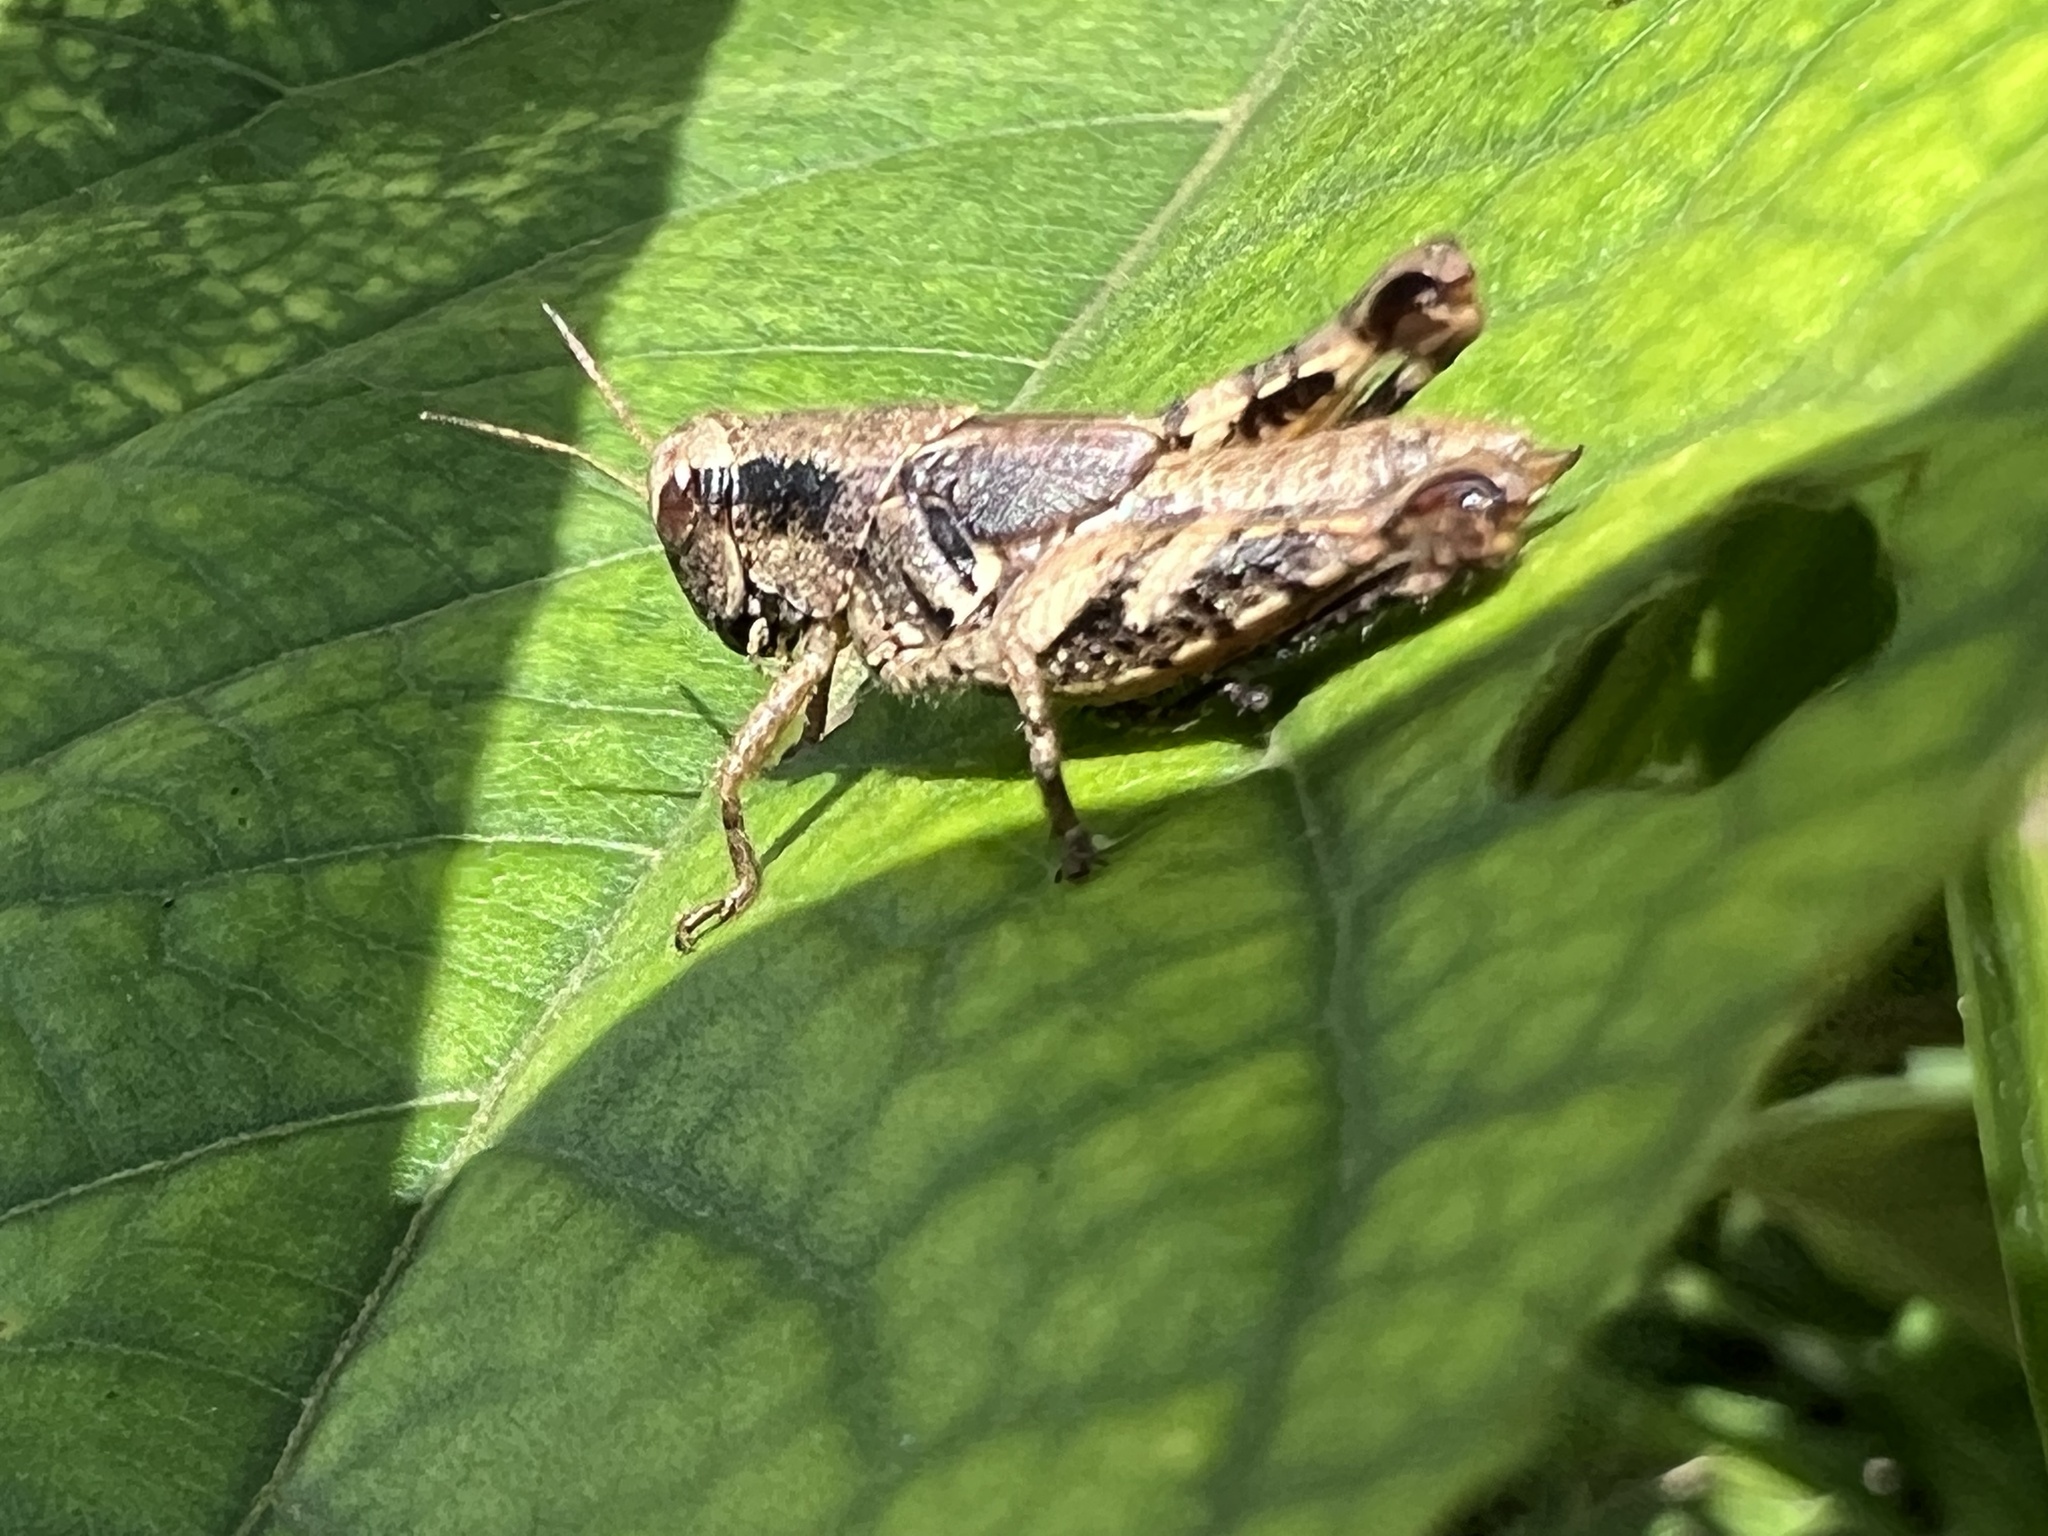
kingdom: Animalia
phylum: Arthropoda
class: Insecta
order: Orthoptera
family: Acrididae
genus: Aidemona
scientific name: Aidemona azteca
